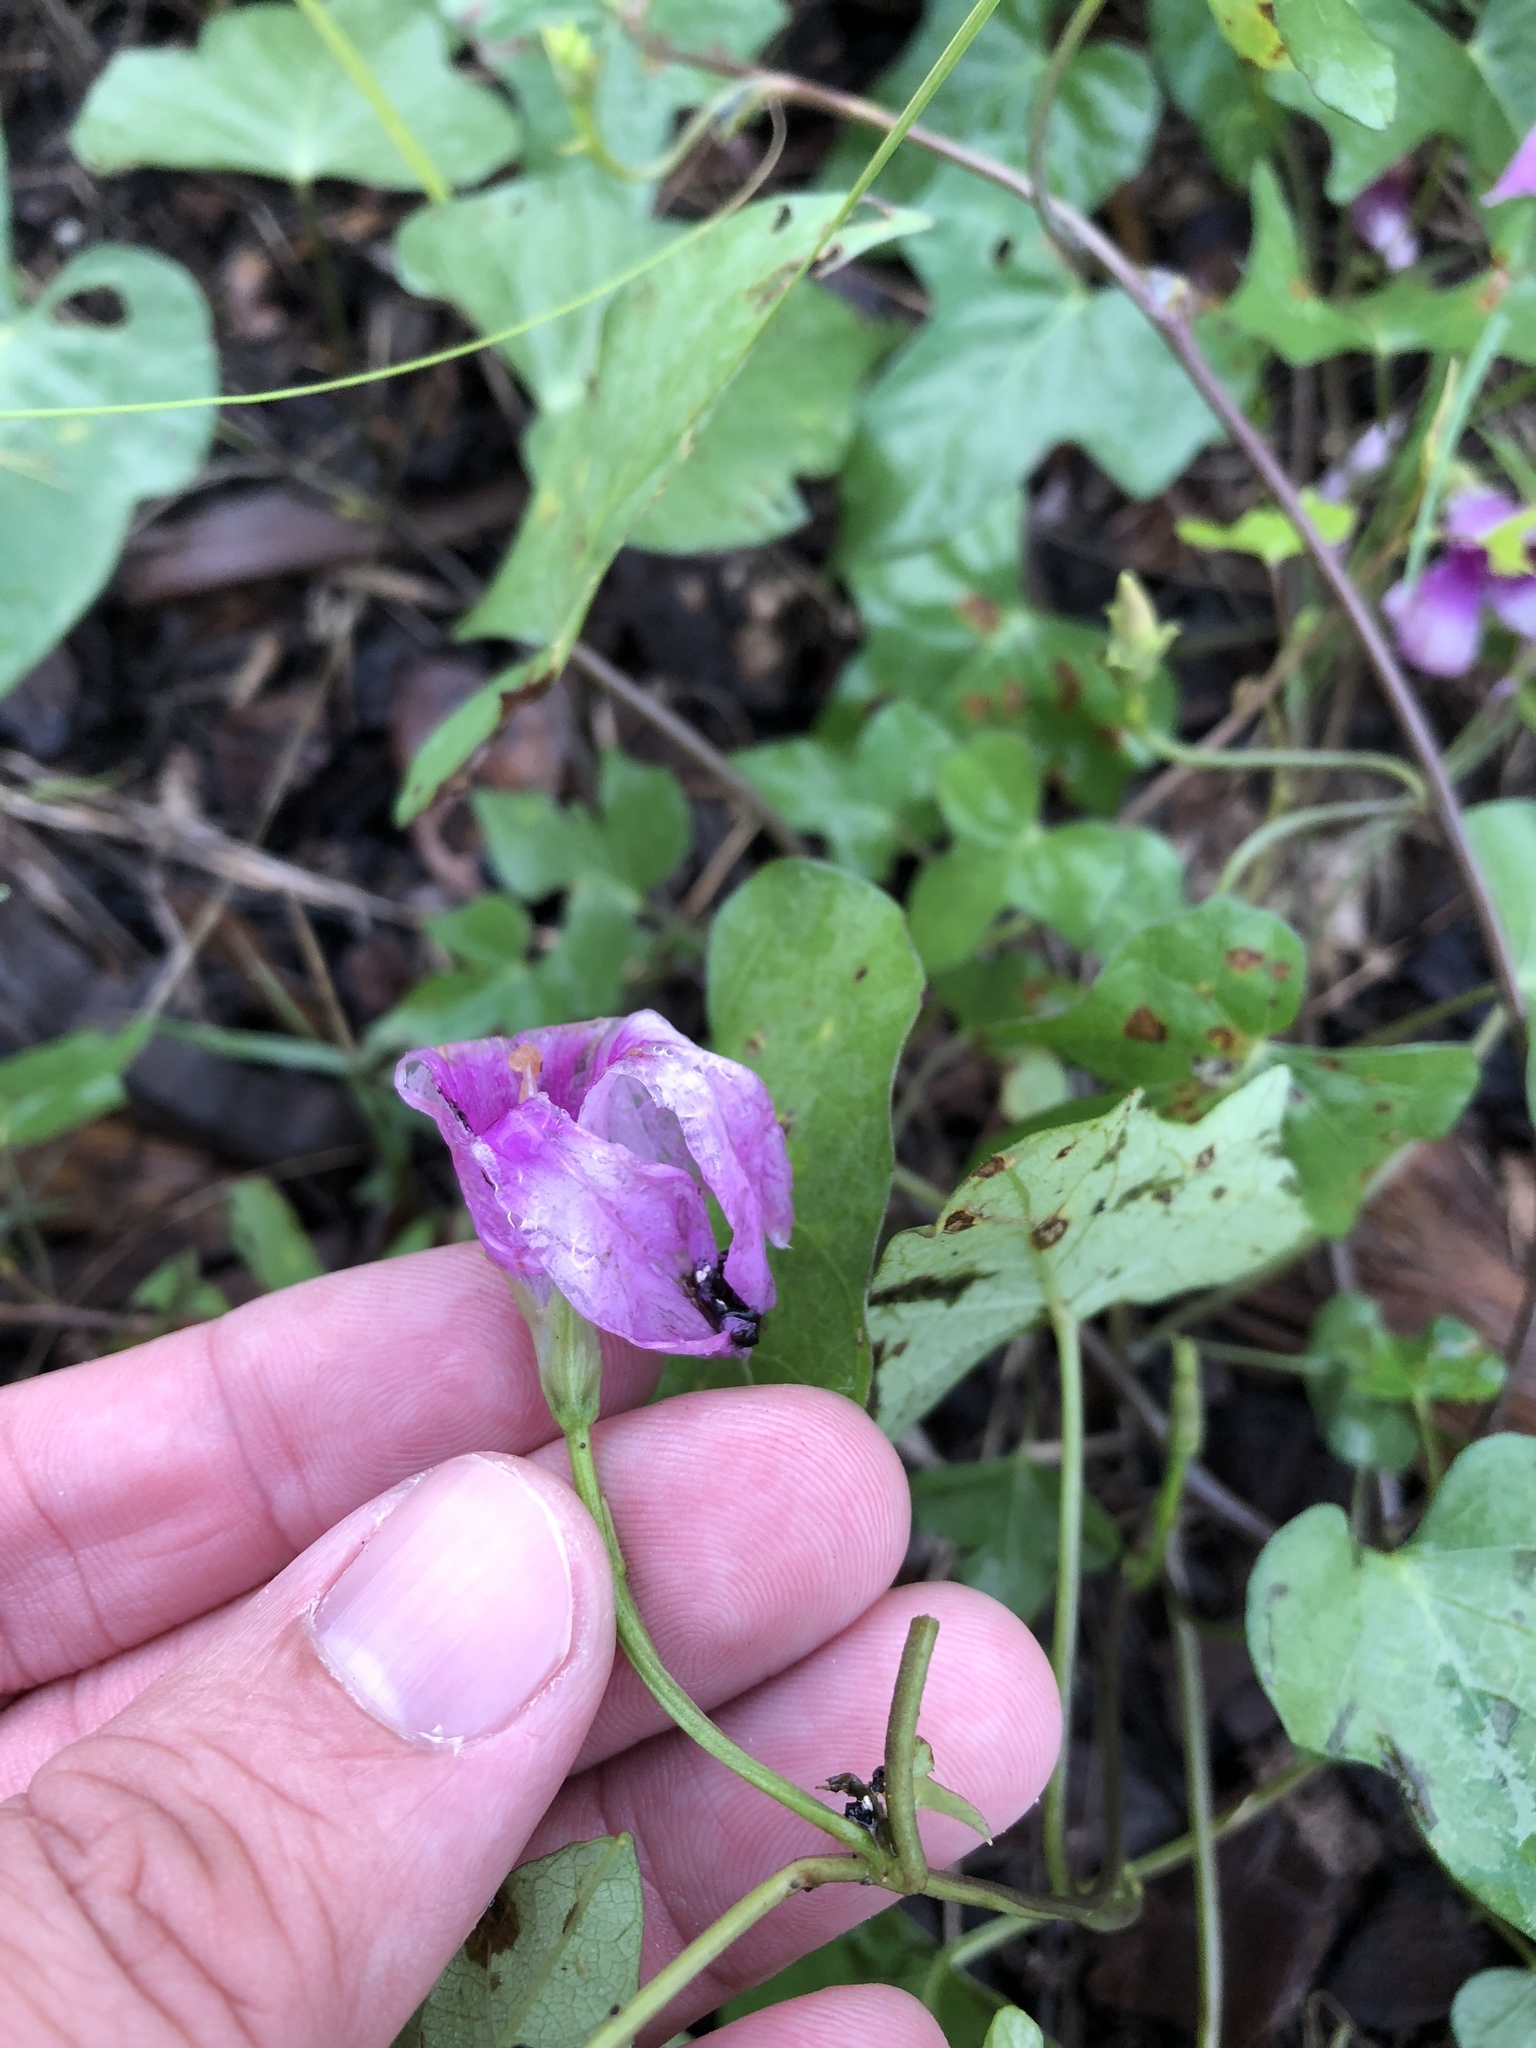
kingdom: Plantae
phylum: Tracheophyta
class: Magnoliopsida
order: Solanales
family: Convolvulaceae
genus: Ipomoea
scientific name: Ipomoea cordatotriloba
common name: Cotton morning glory
